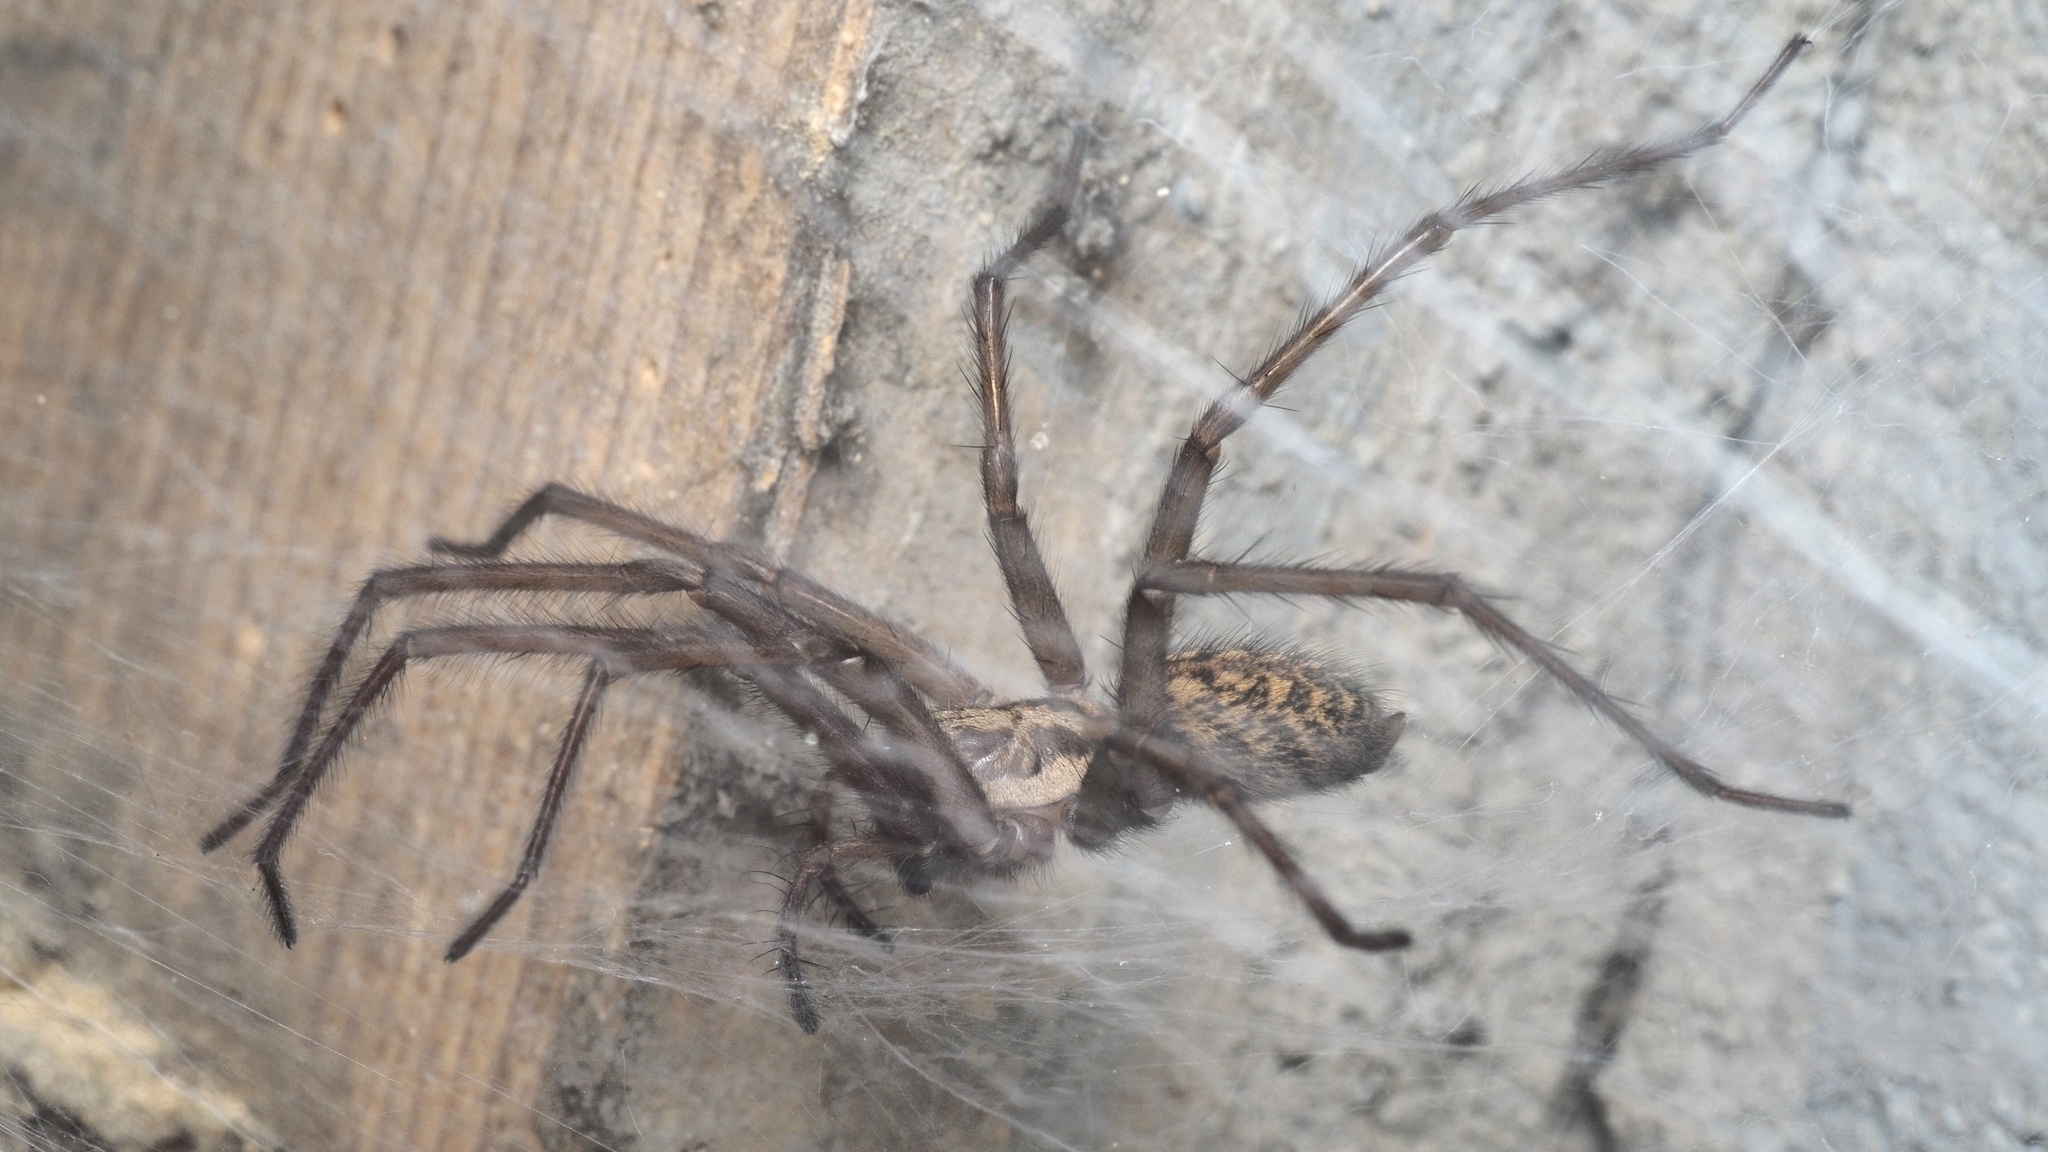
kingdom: Animalia
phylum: Arthropoda
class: Arachnida
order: Araneae
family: Agelenidae
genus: Eratigena
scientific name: Eratigena atrica
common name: Giant house spider
